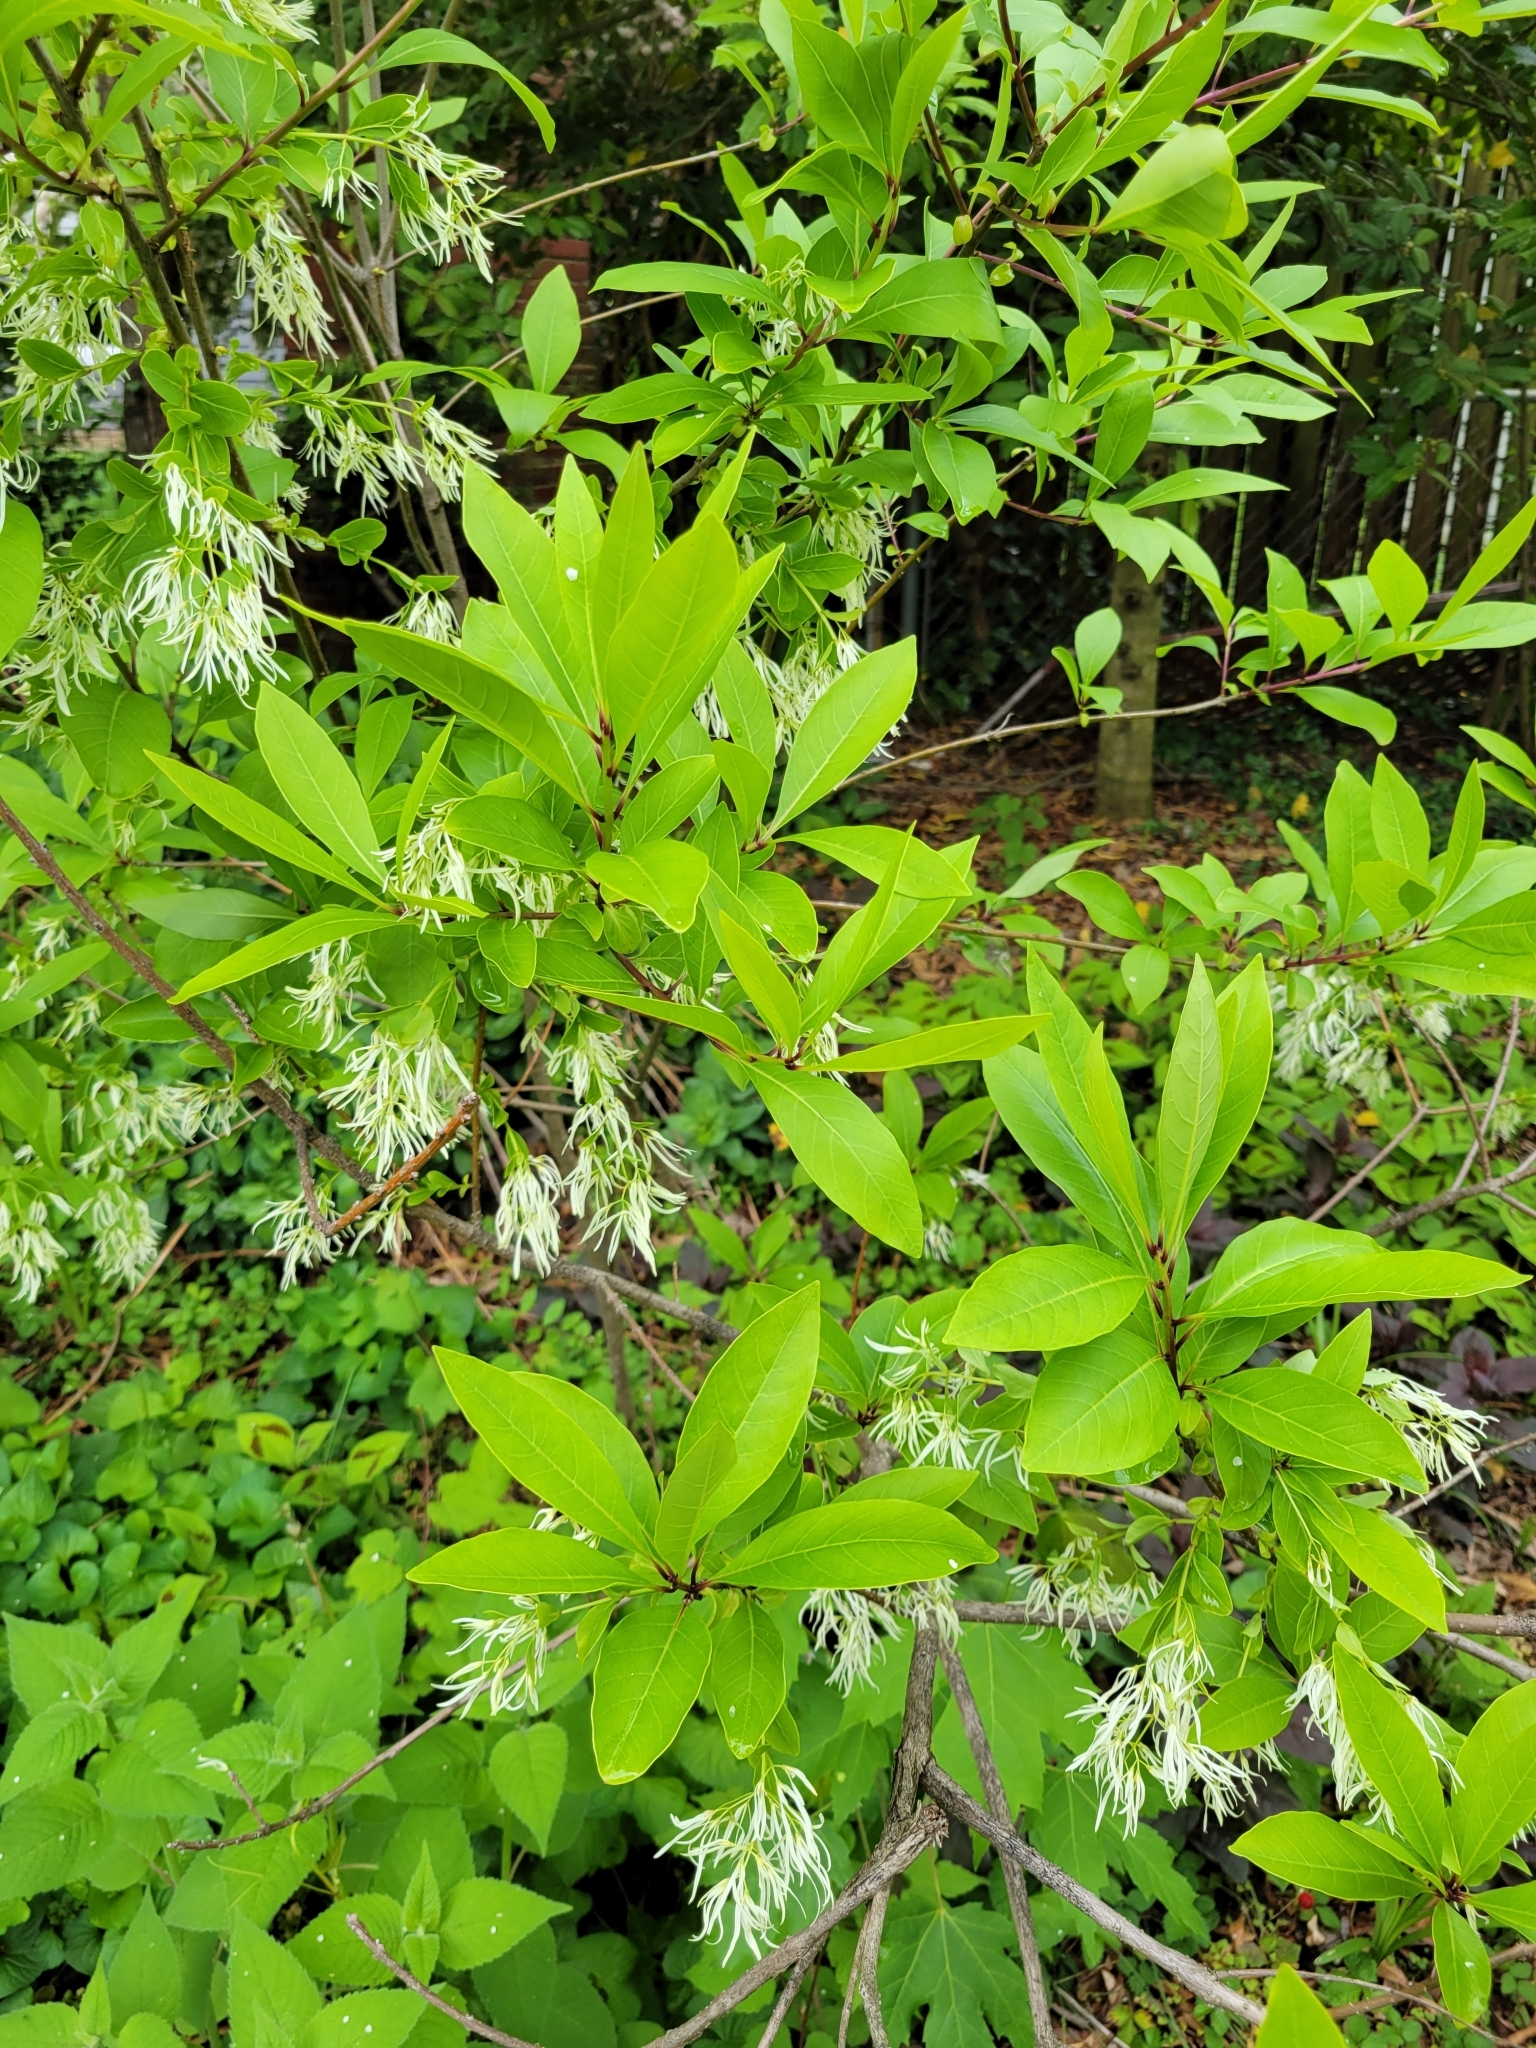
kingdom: Plantae
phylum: Tracheophyta
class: Magnoliopsida
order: Lamiales
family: Oleaceae
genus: Chionanthus
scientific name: Chionanthus virginicus
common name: American fringetree
